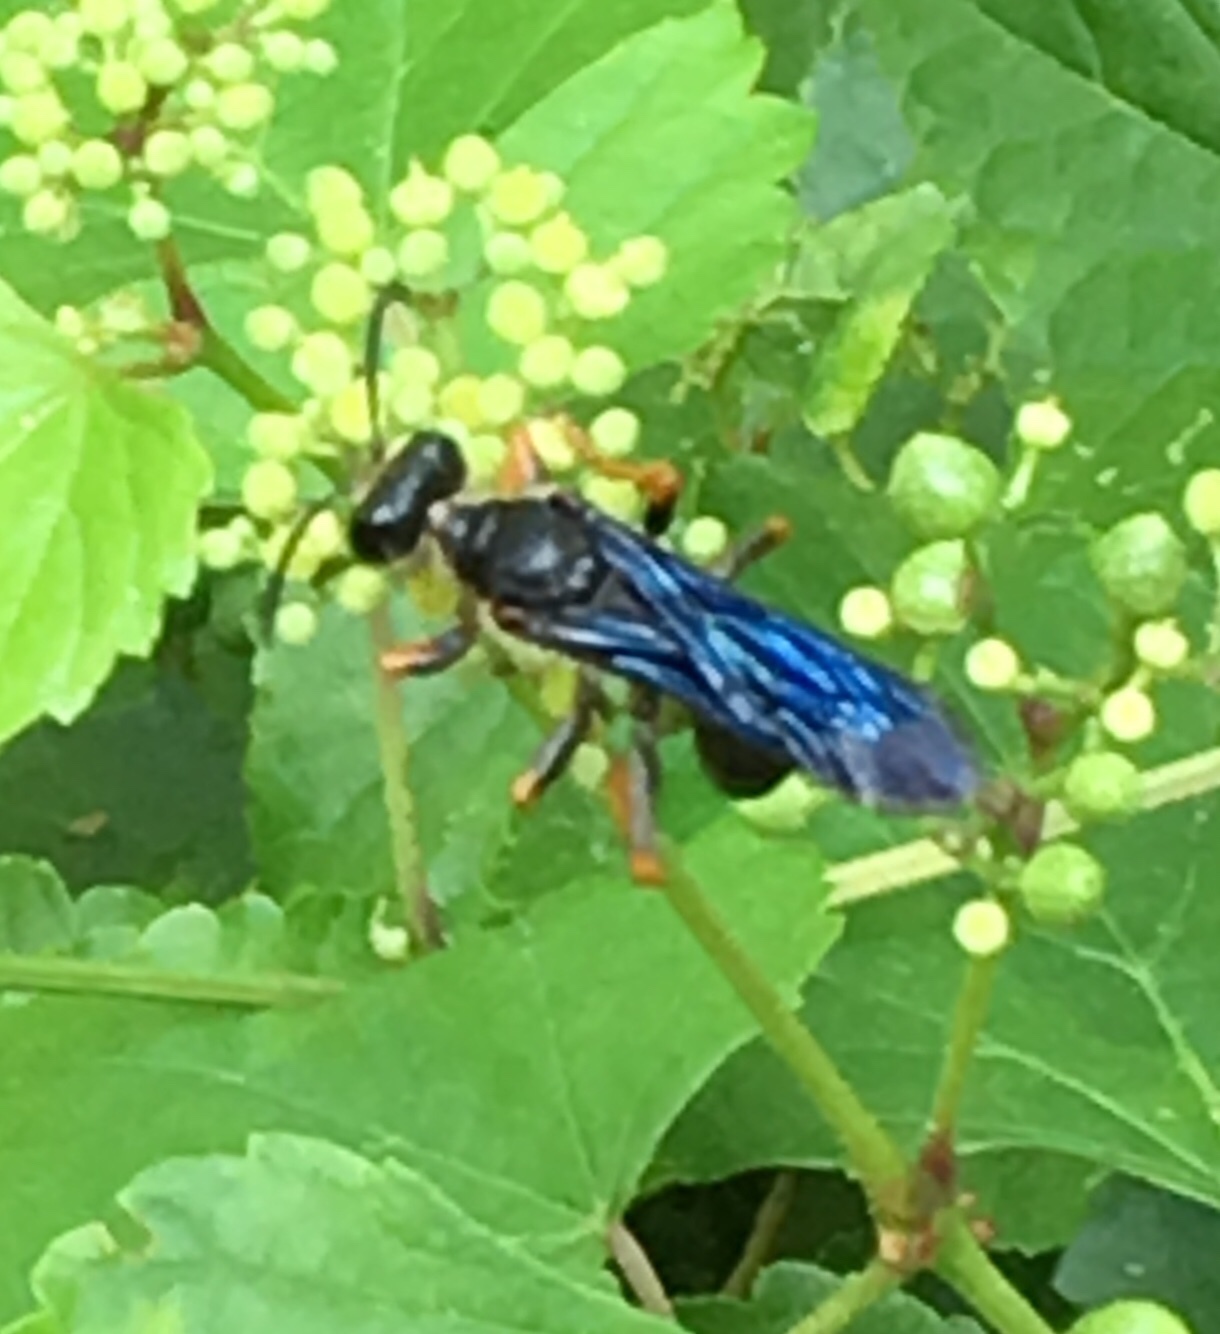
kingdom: Animalia
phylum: Arthropoda
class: Insecta
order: Hymenoptera
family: Sphecidae
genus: Sphex
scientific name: Sphex nudus
